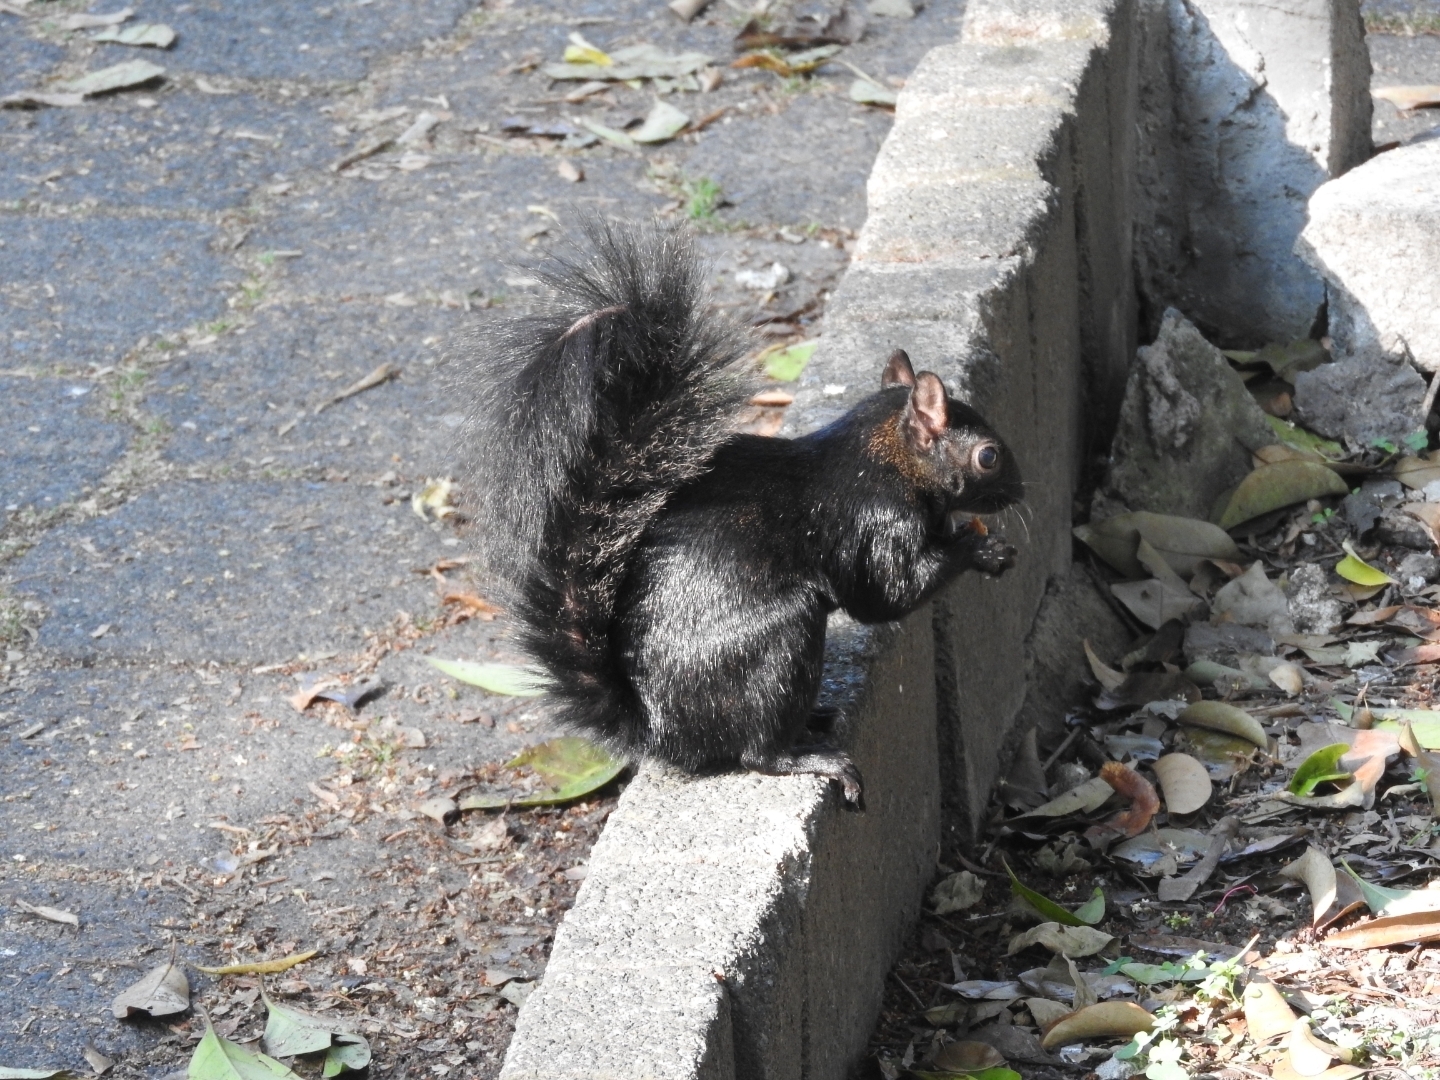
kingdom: Animalia
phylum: Chordata
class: Mammalia
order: Rodentia
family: Sciuridae
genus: Sciurus
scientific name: Sciurus aureogaster
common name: Red-bellied squirrel
